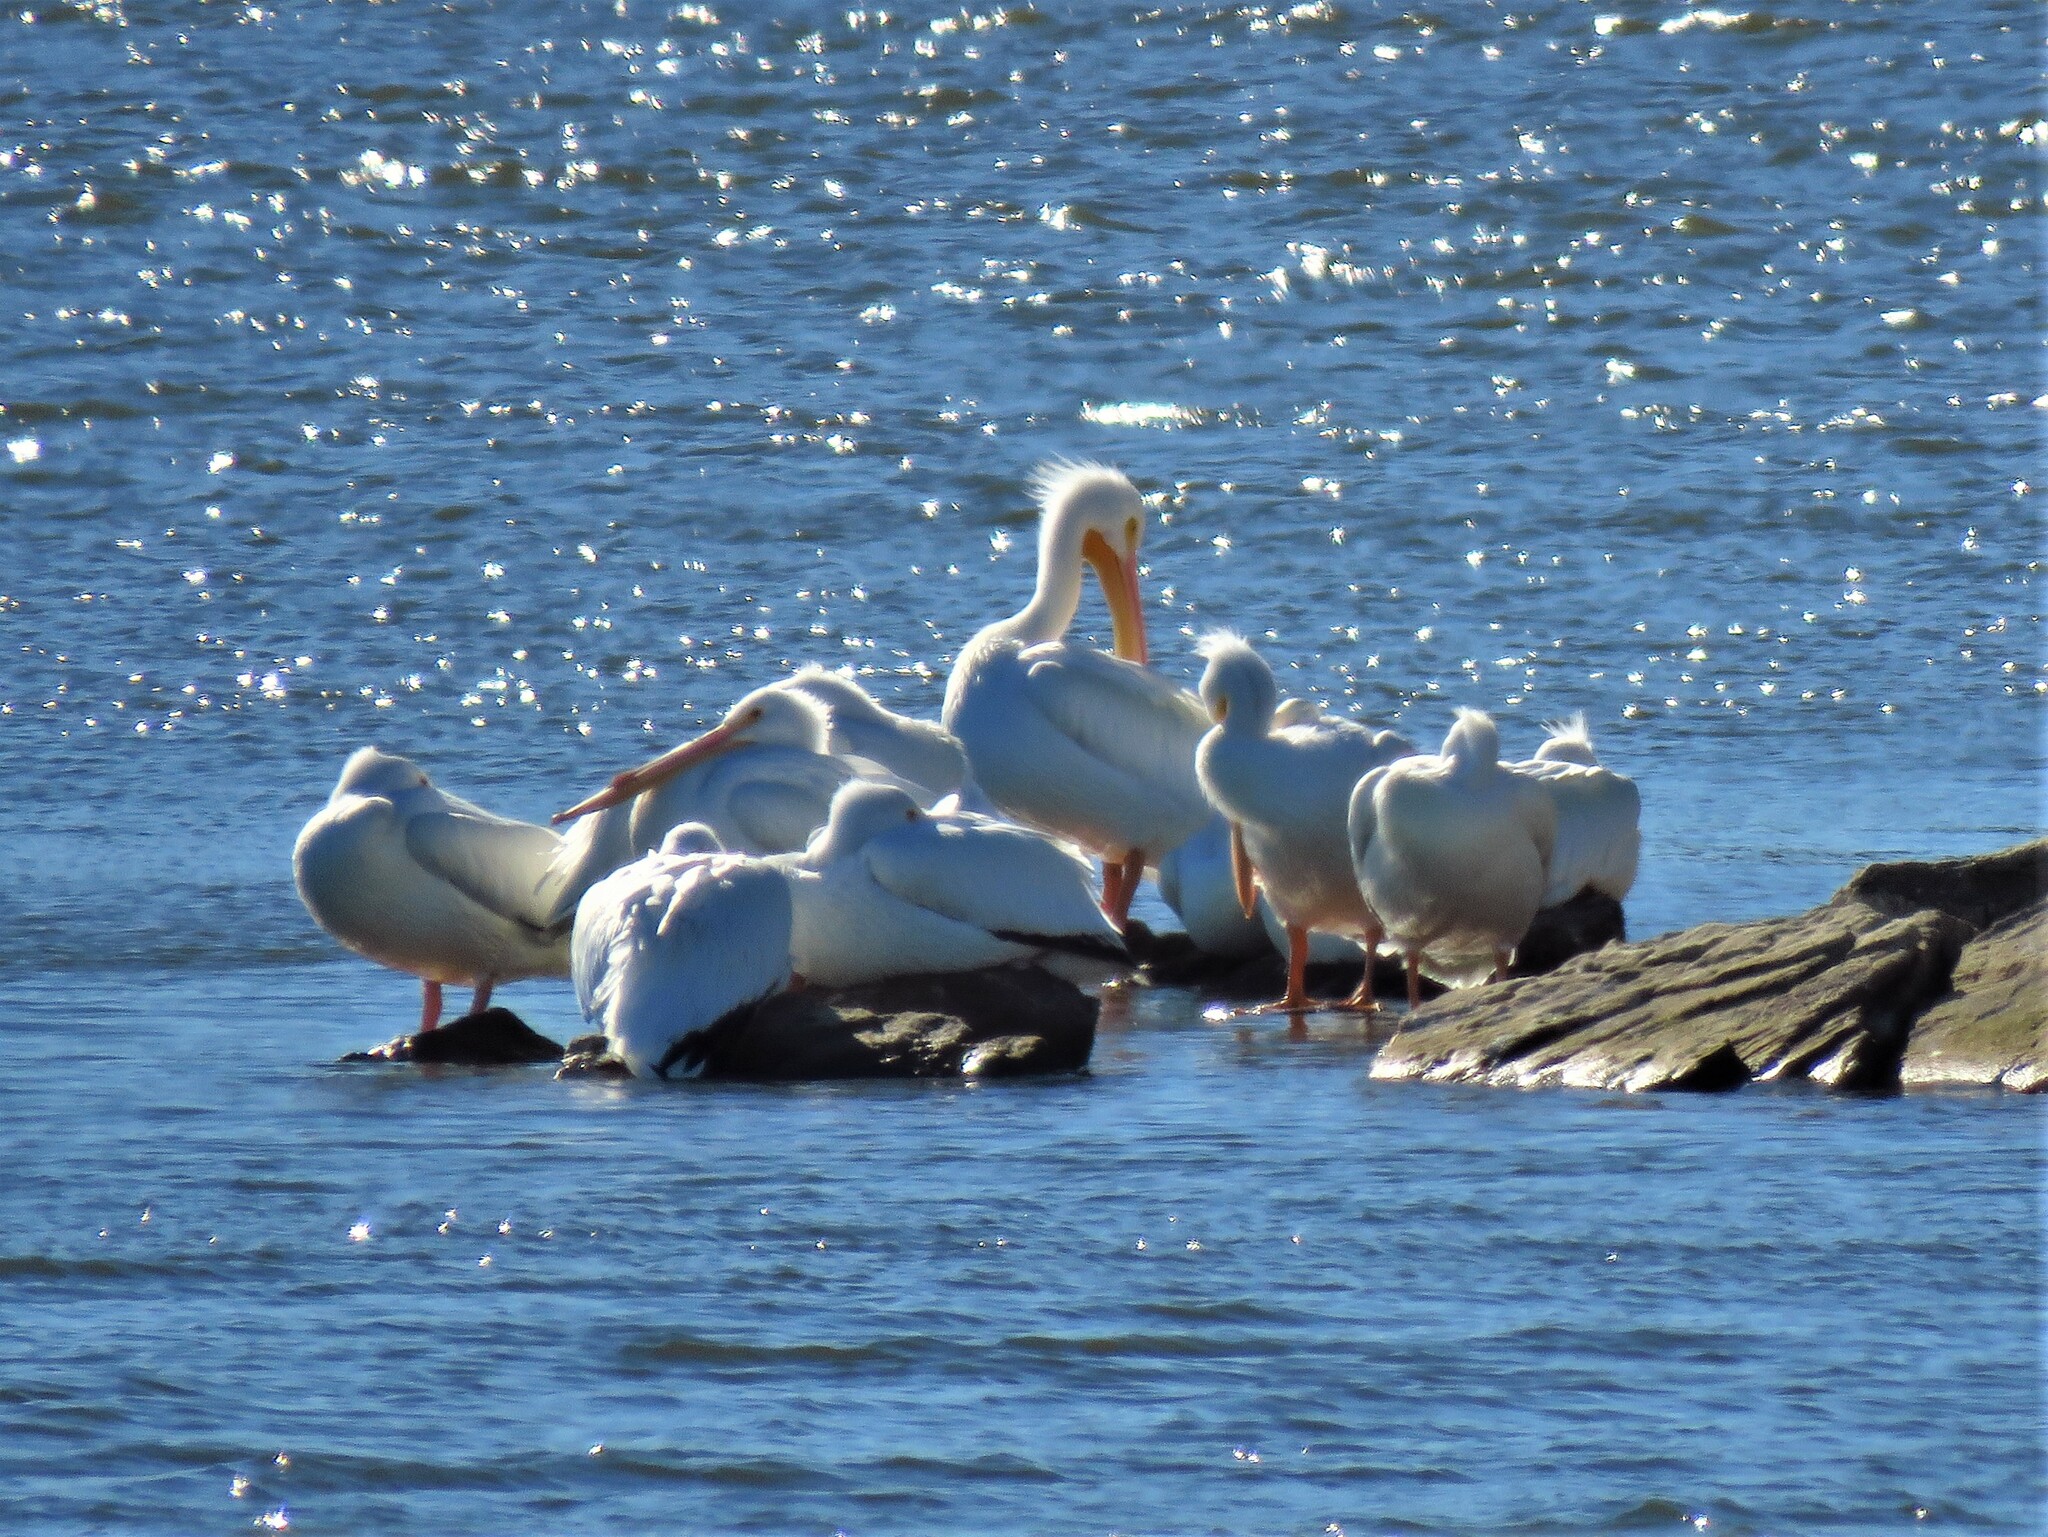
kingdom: Animalia
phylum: Chordata
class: Aves
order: Pelecaniformes
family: Pelecanidae
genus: Pelecanus
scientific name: Pelecanus erythrorhynchos
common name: American white pelican
